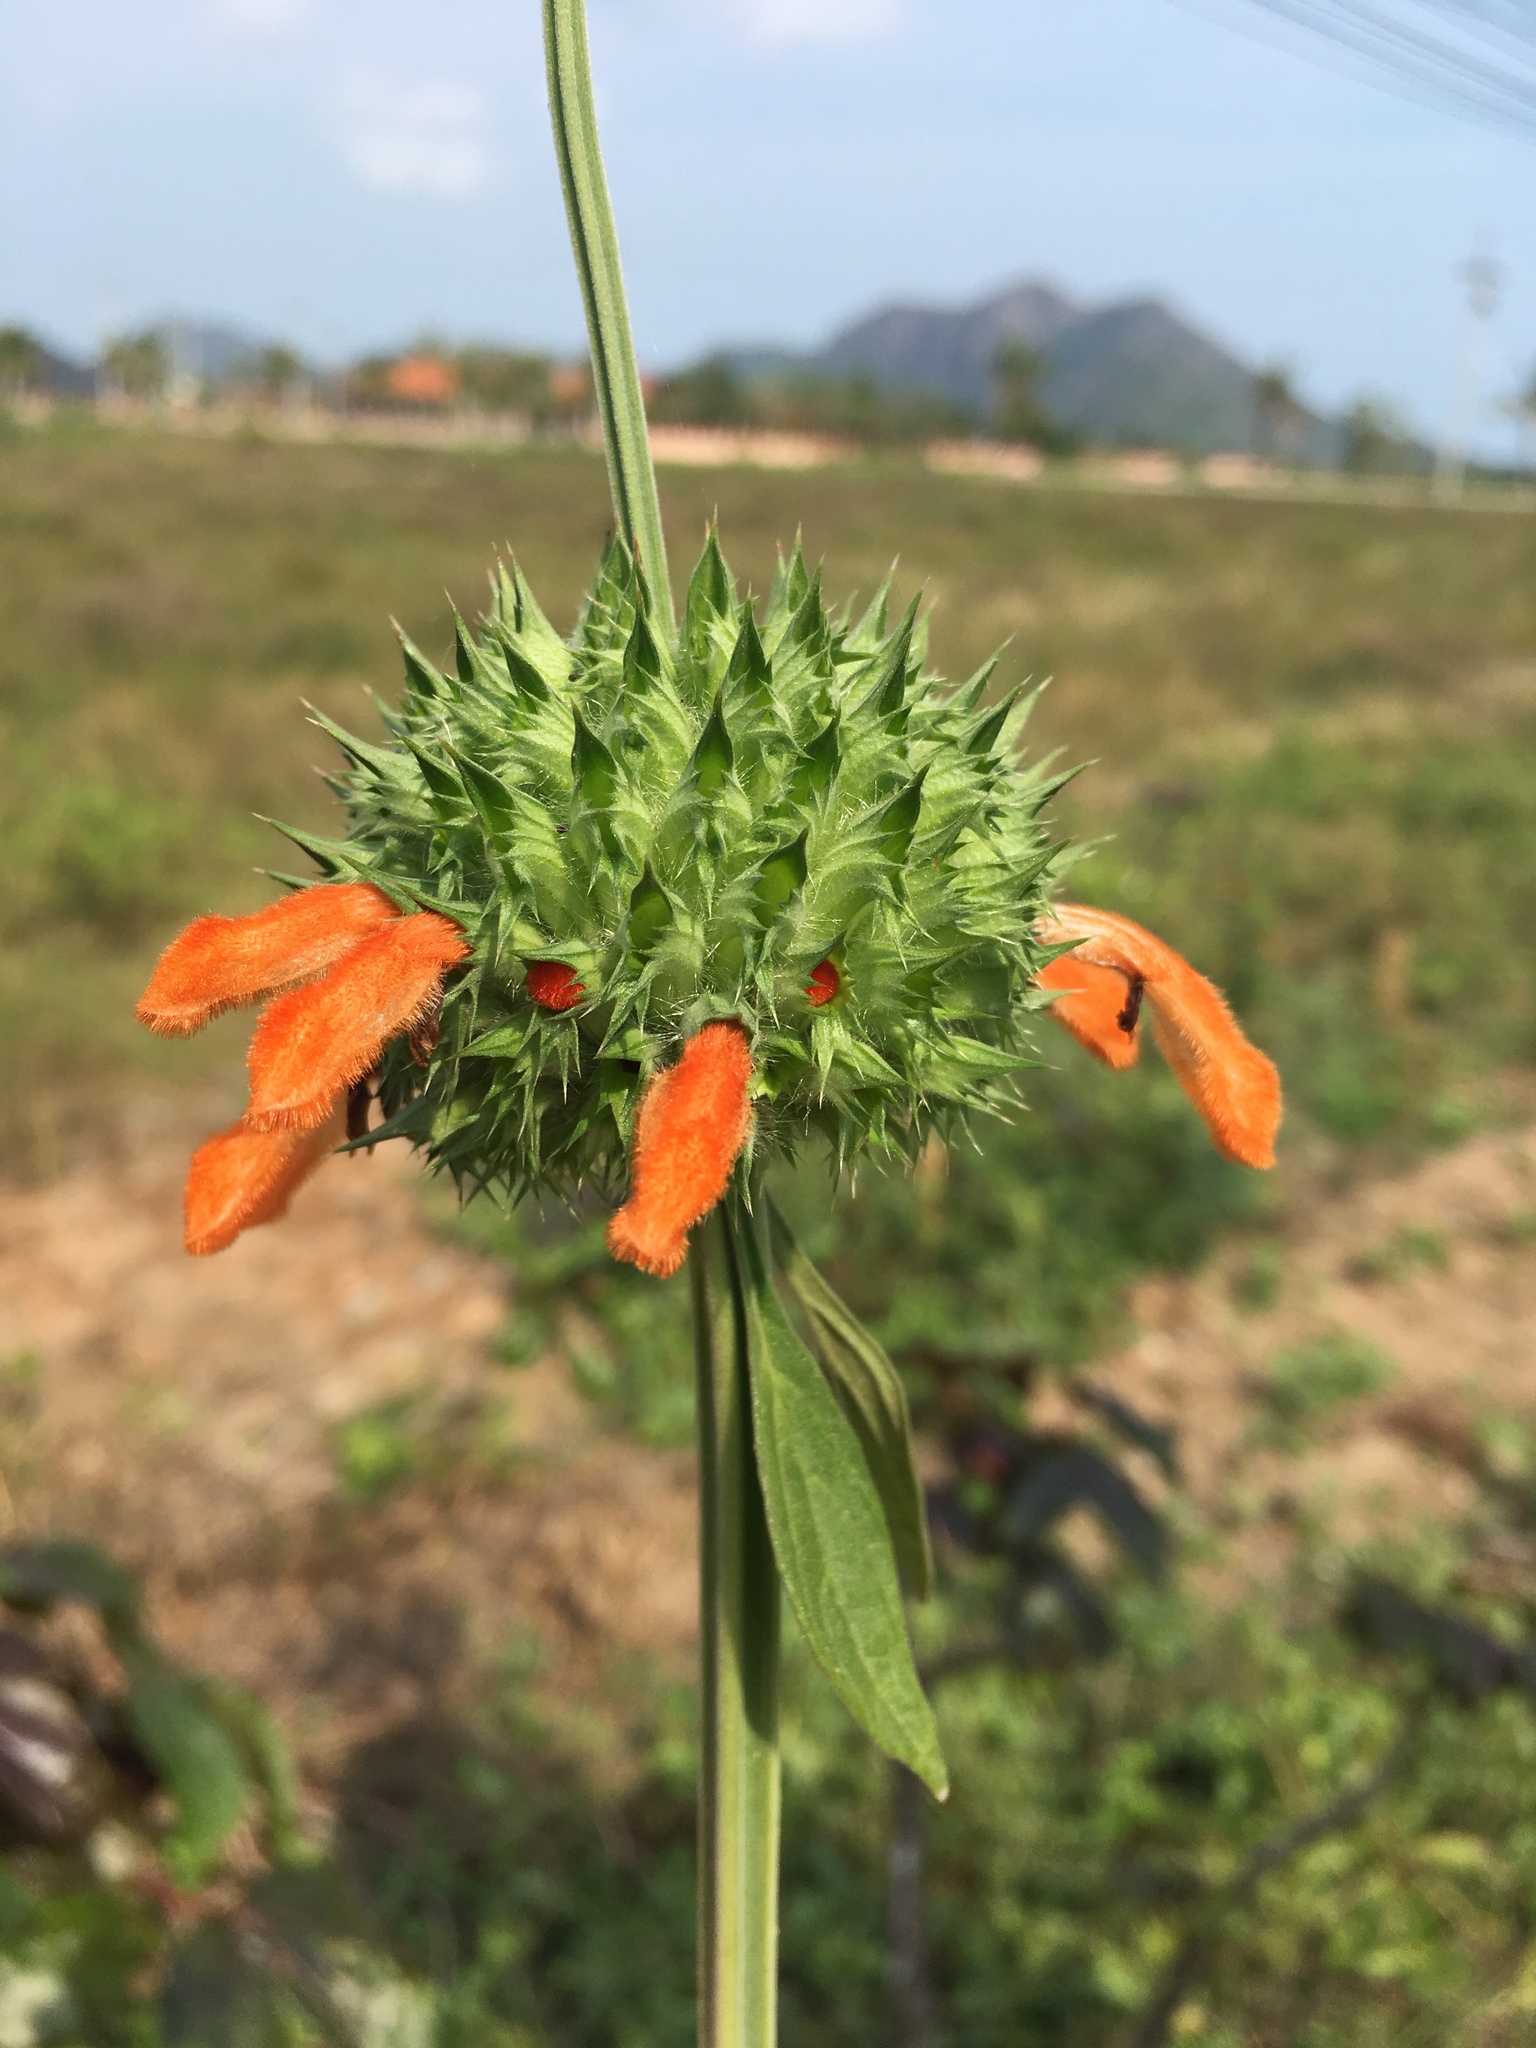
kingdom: Plantae
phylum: Tracheophyta
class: Magnoliopsida
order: Lamiales
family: Lamiaceae
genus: Leonotis
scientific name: Leonotis nepetifolia
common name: Christmas candlestick
